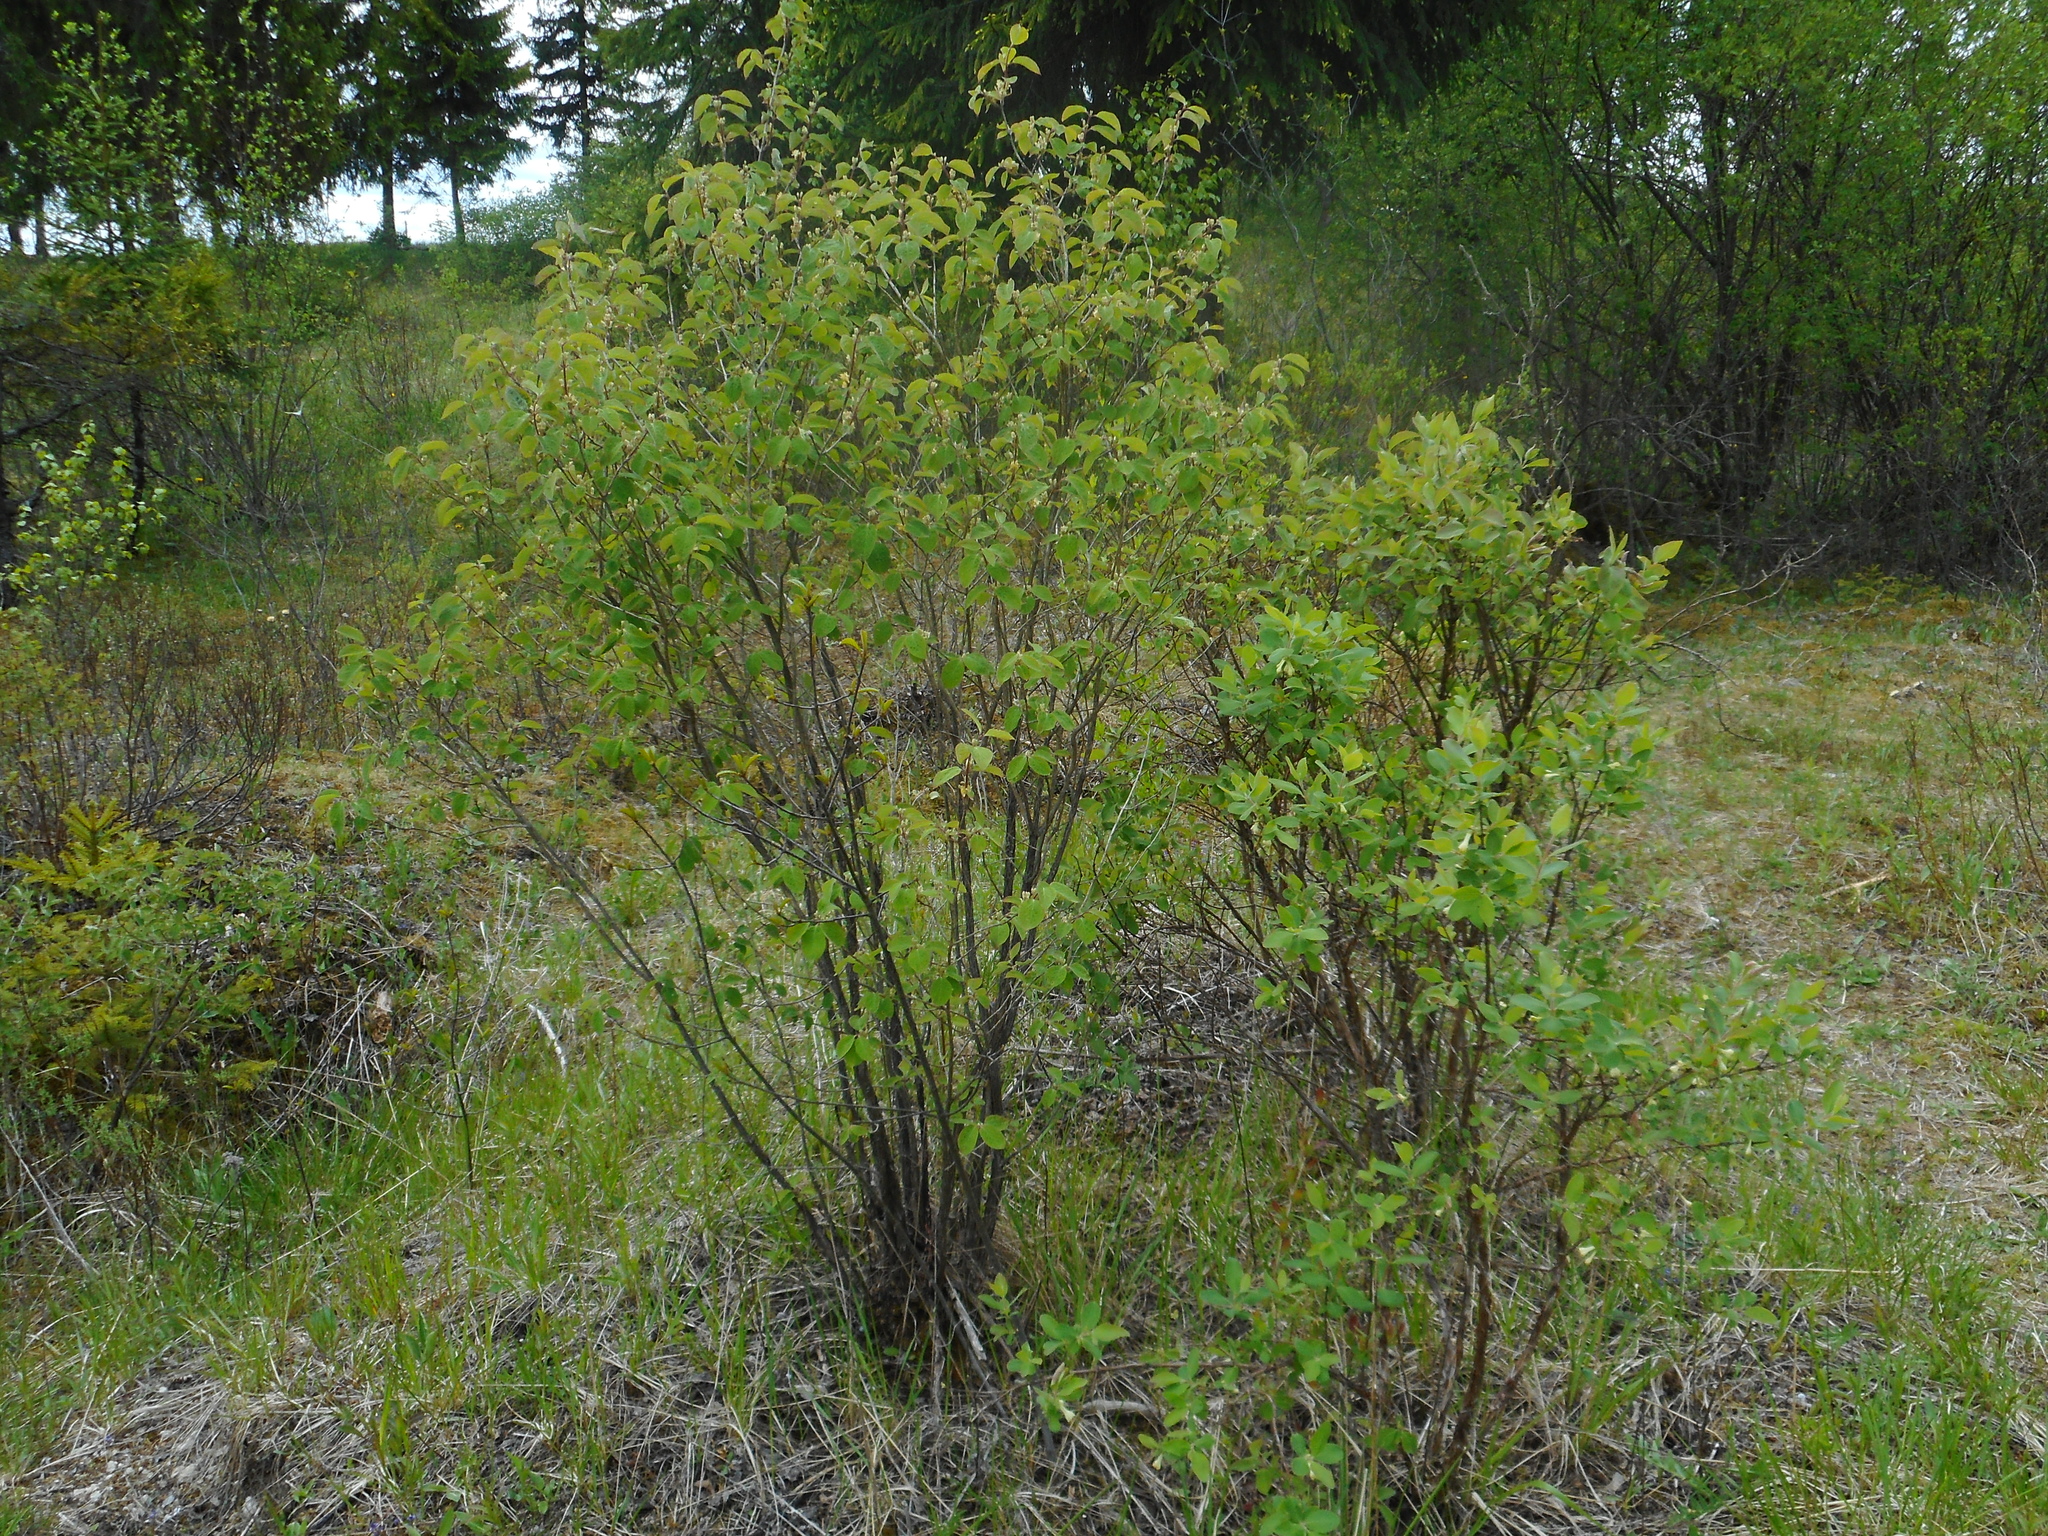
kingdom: Plantae
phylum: Tracheophyta
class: Magnoliopsida
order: Dipsacales
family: Caprifoliaceae
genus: Lonicera
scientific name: Lonicera caerulea
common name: Blue honeysuckle
